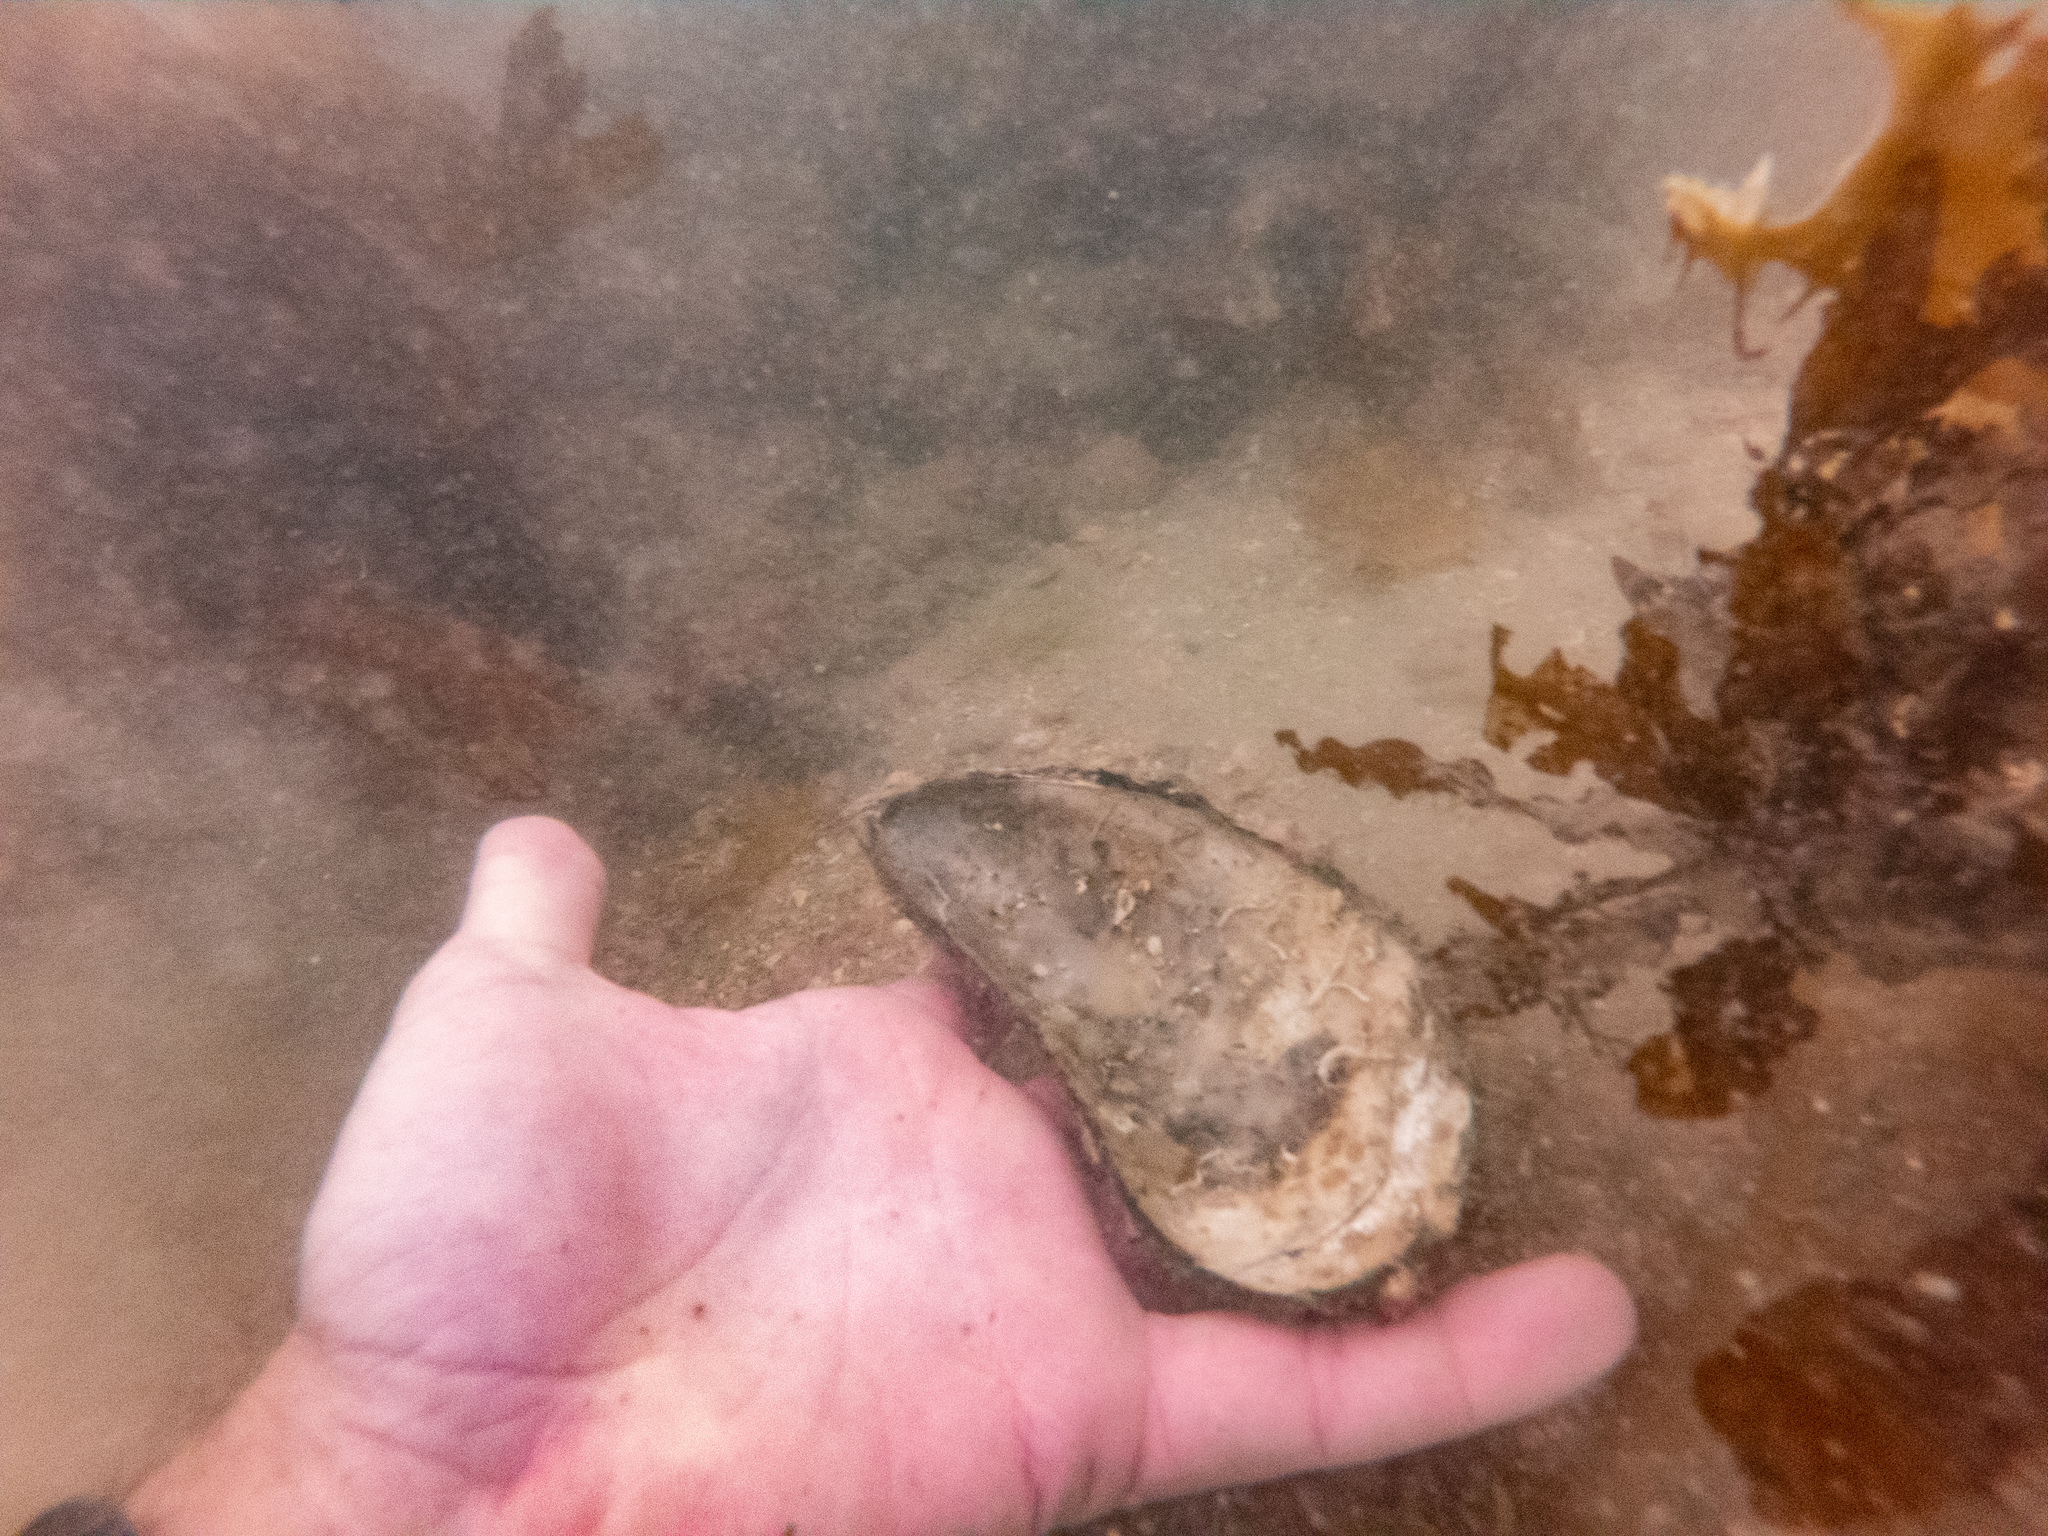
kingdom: Animalia
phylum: Mollusca
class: Bivalvia
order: Mytilida
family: Mytilidae
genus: Perna
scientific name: Perna canaliculus
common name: New zealand greenshelltm
